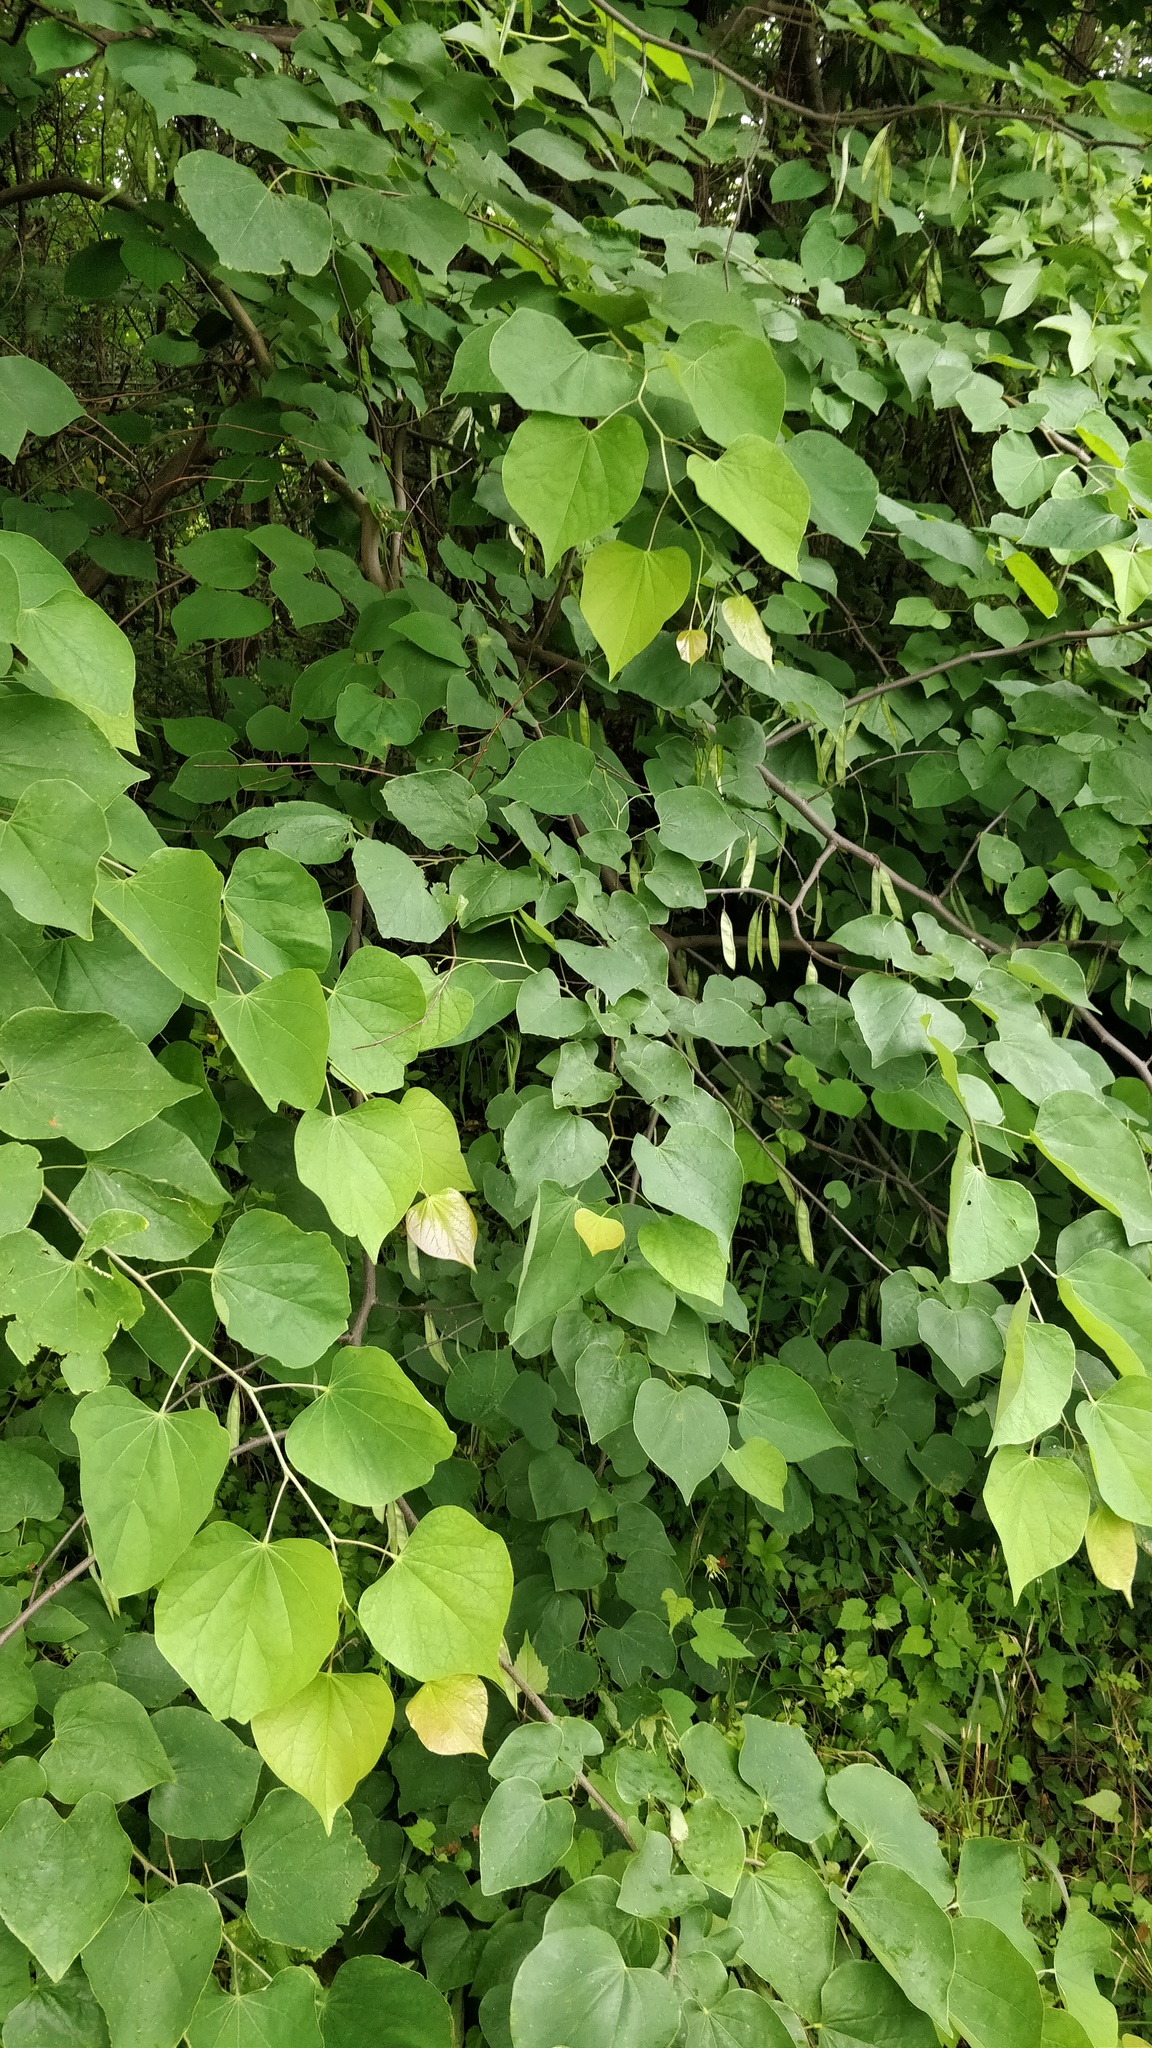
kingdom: Plantae
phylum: Tracheophyta
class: Magnoliopsida
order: Fabales
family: Fabaceae
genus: Cercis
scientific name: Cercis canadensis
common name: Eastern redbud
